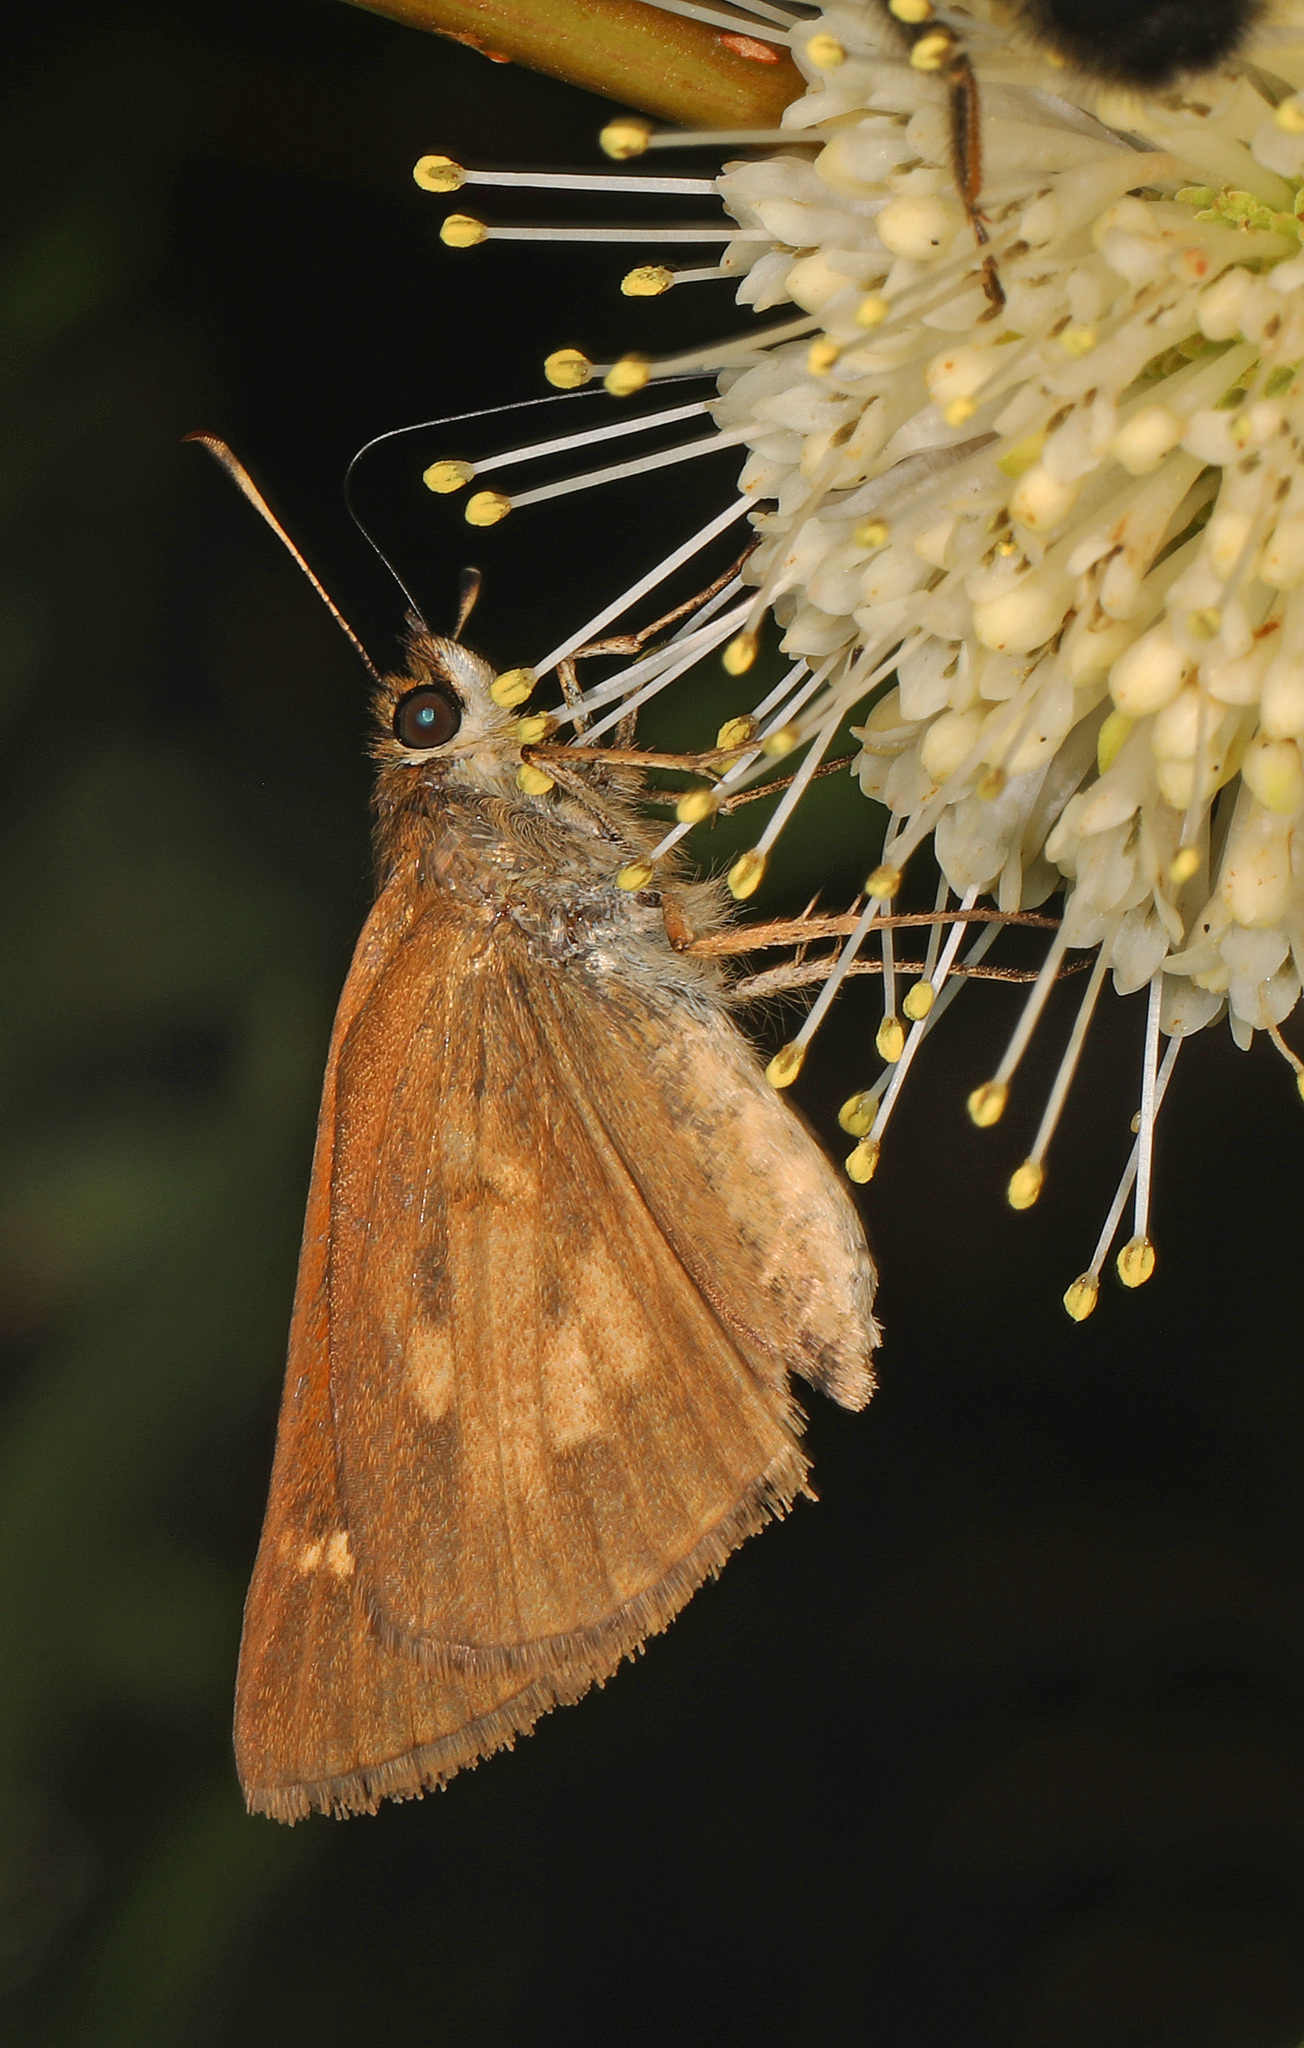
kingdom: Animalia
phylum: Arthropoda
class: Insecta
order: Lepidoptera
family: Hesperiidae
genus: Poanes
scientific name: Poanes viator
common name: Broad-winged skipper
